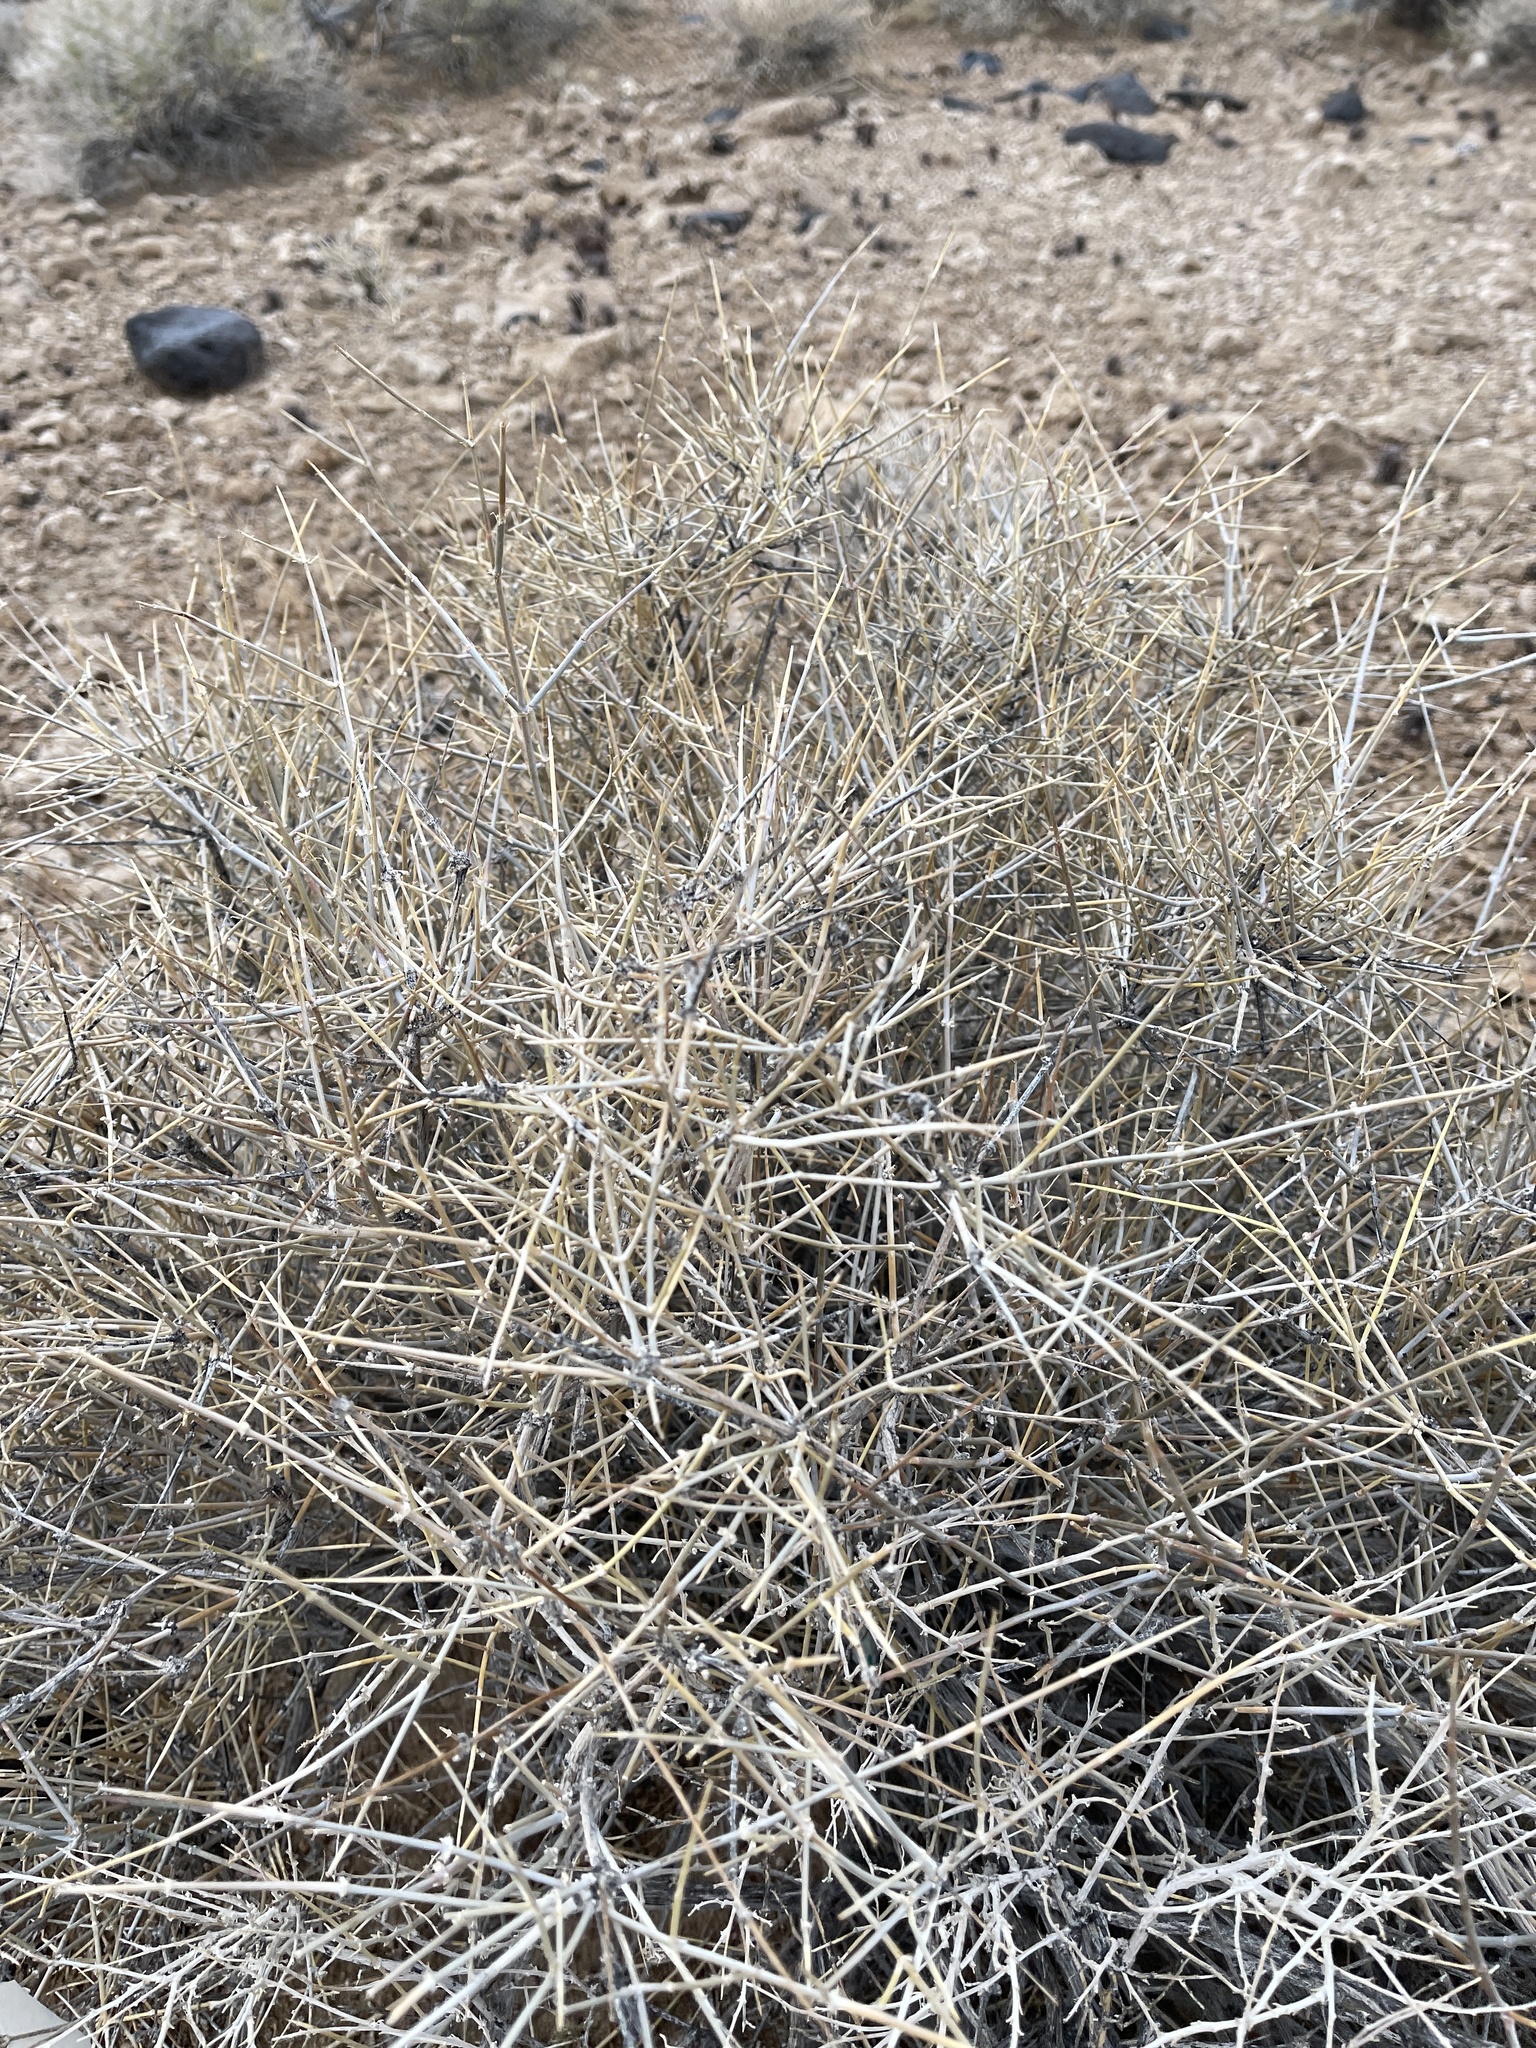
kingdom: Plantae
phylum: Tracheophyta
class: Gnetopsida
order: Ephedrales
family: Ephedraceae
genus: Ephedra
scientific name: Ephedra nevadensis
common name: Gray ephedra
